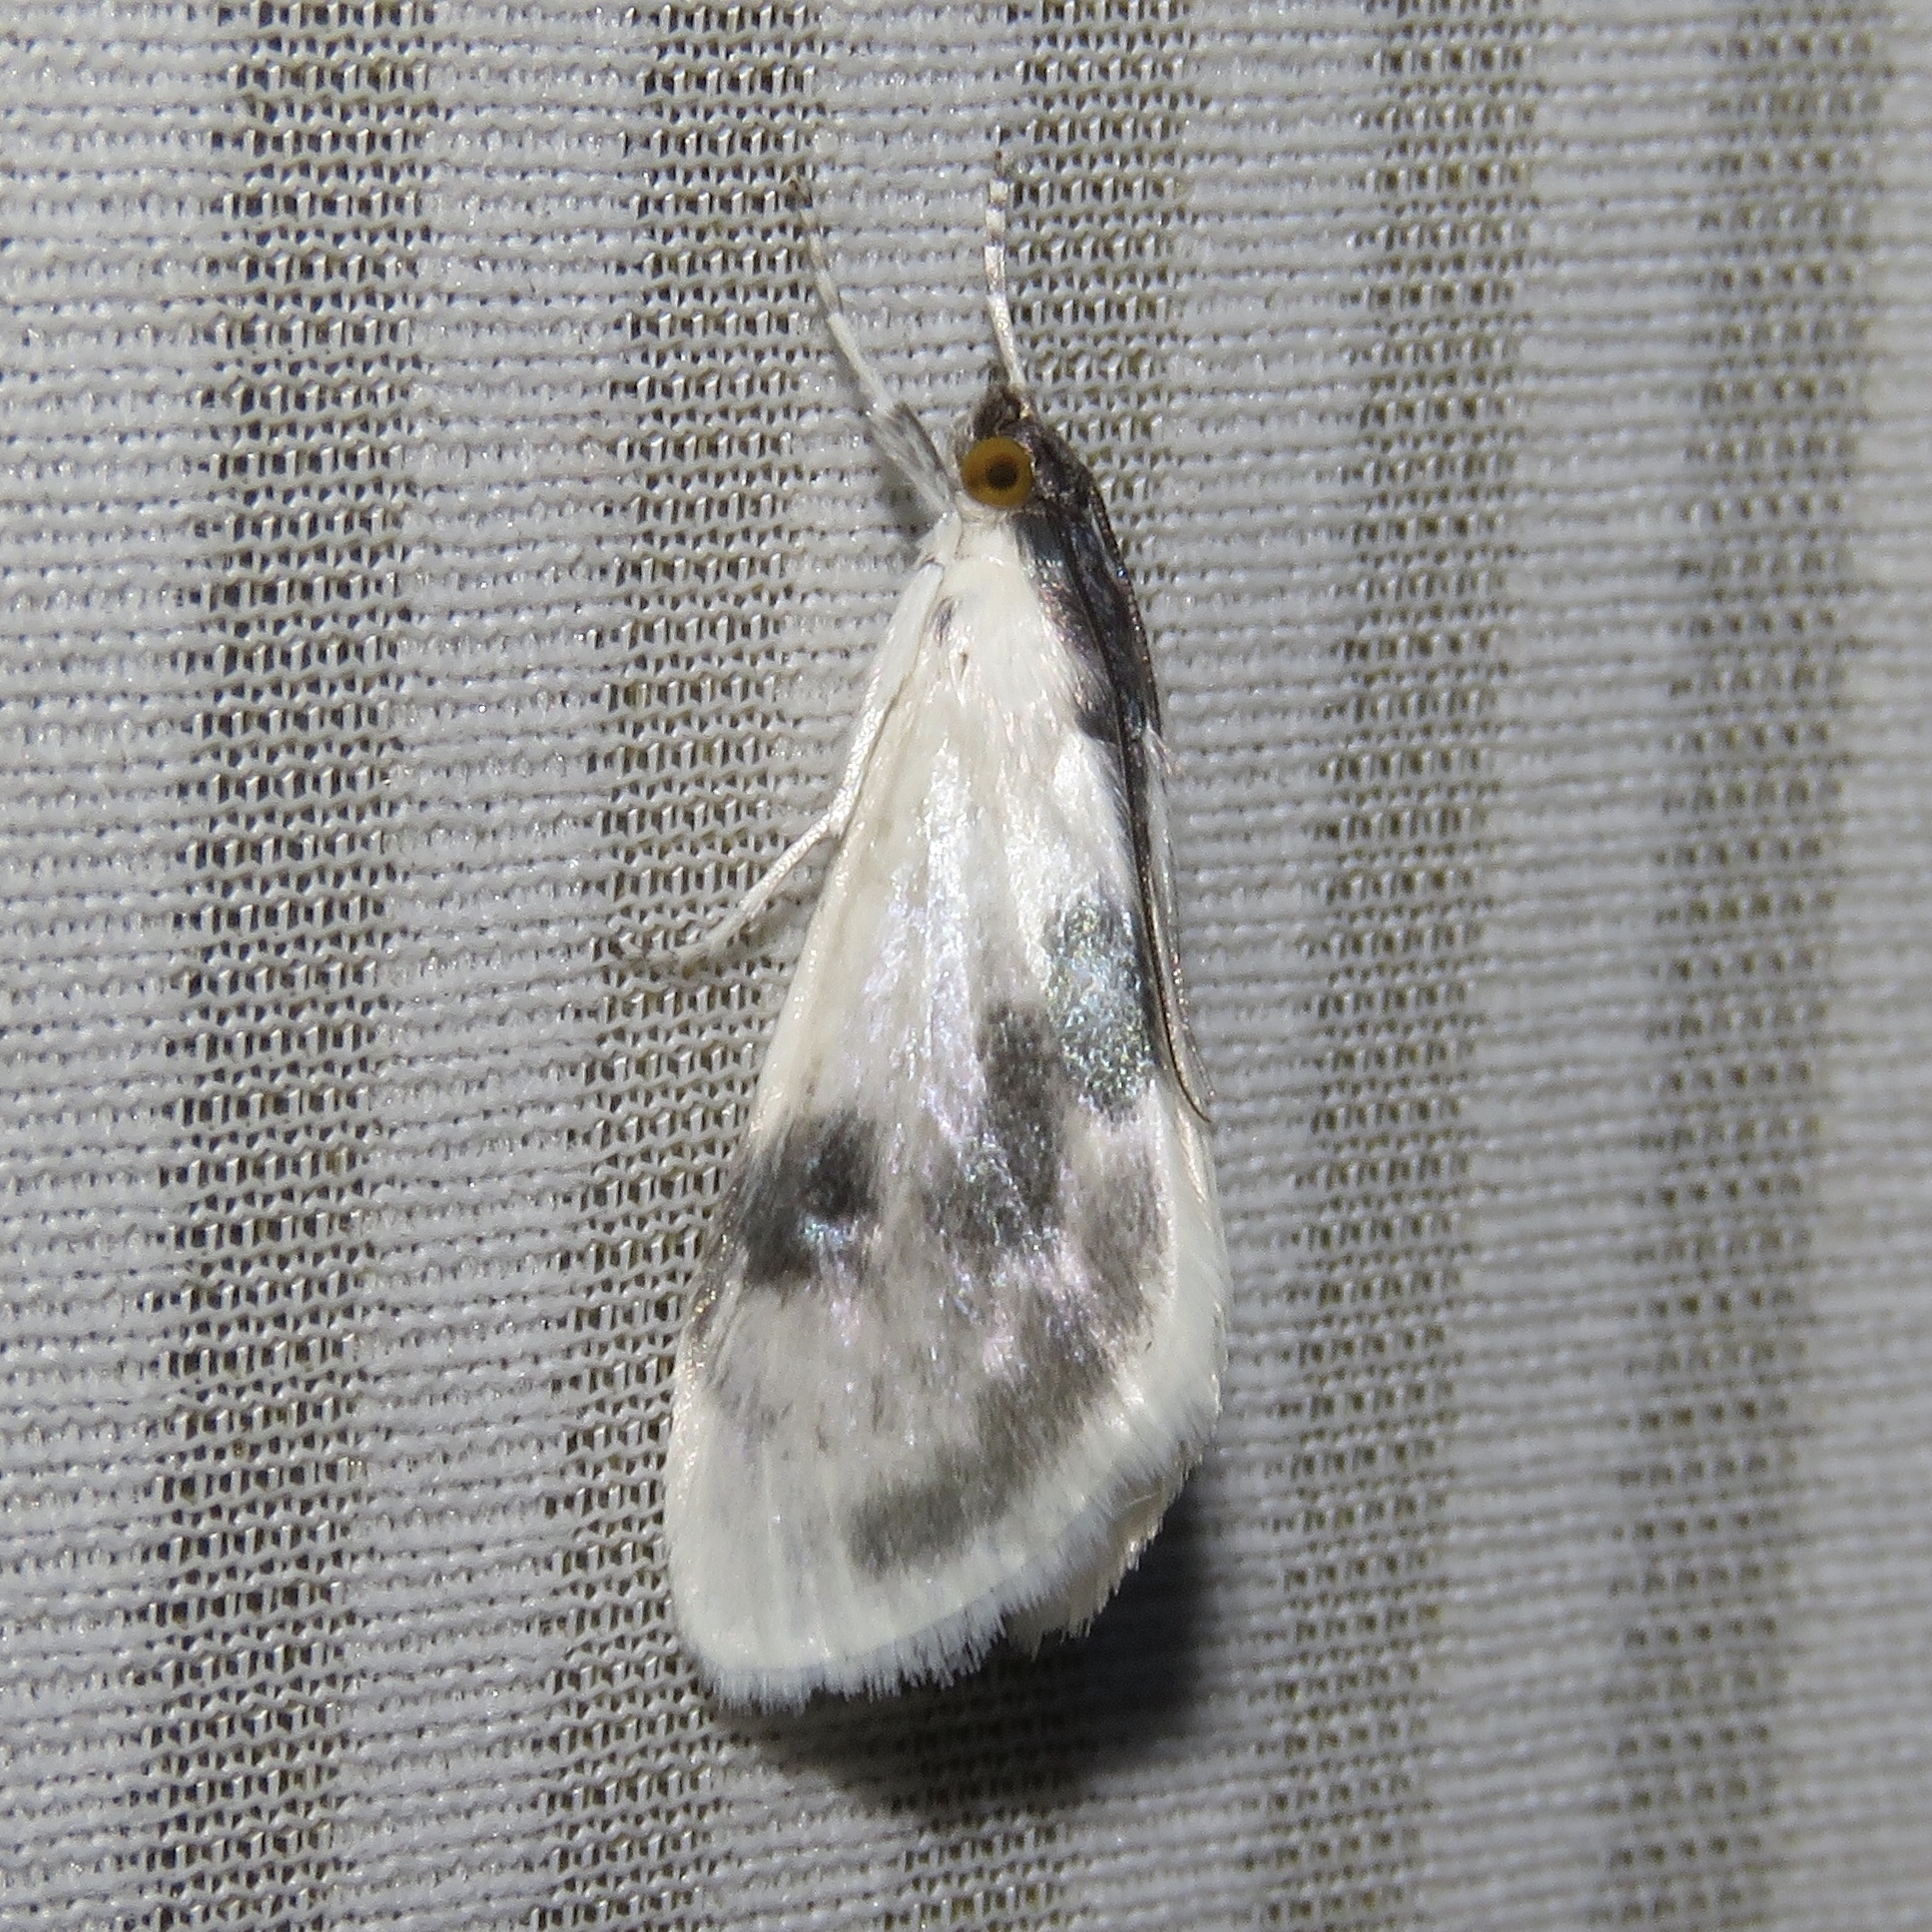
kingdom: Animalia
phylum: Arthropoda
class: Insecta
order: Lepidoptera
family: Crambidae
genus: Cliniodes
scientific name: Cliniodes
